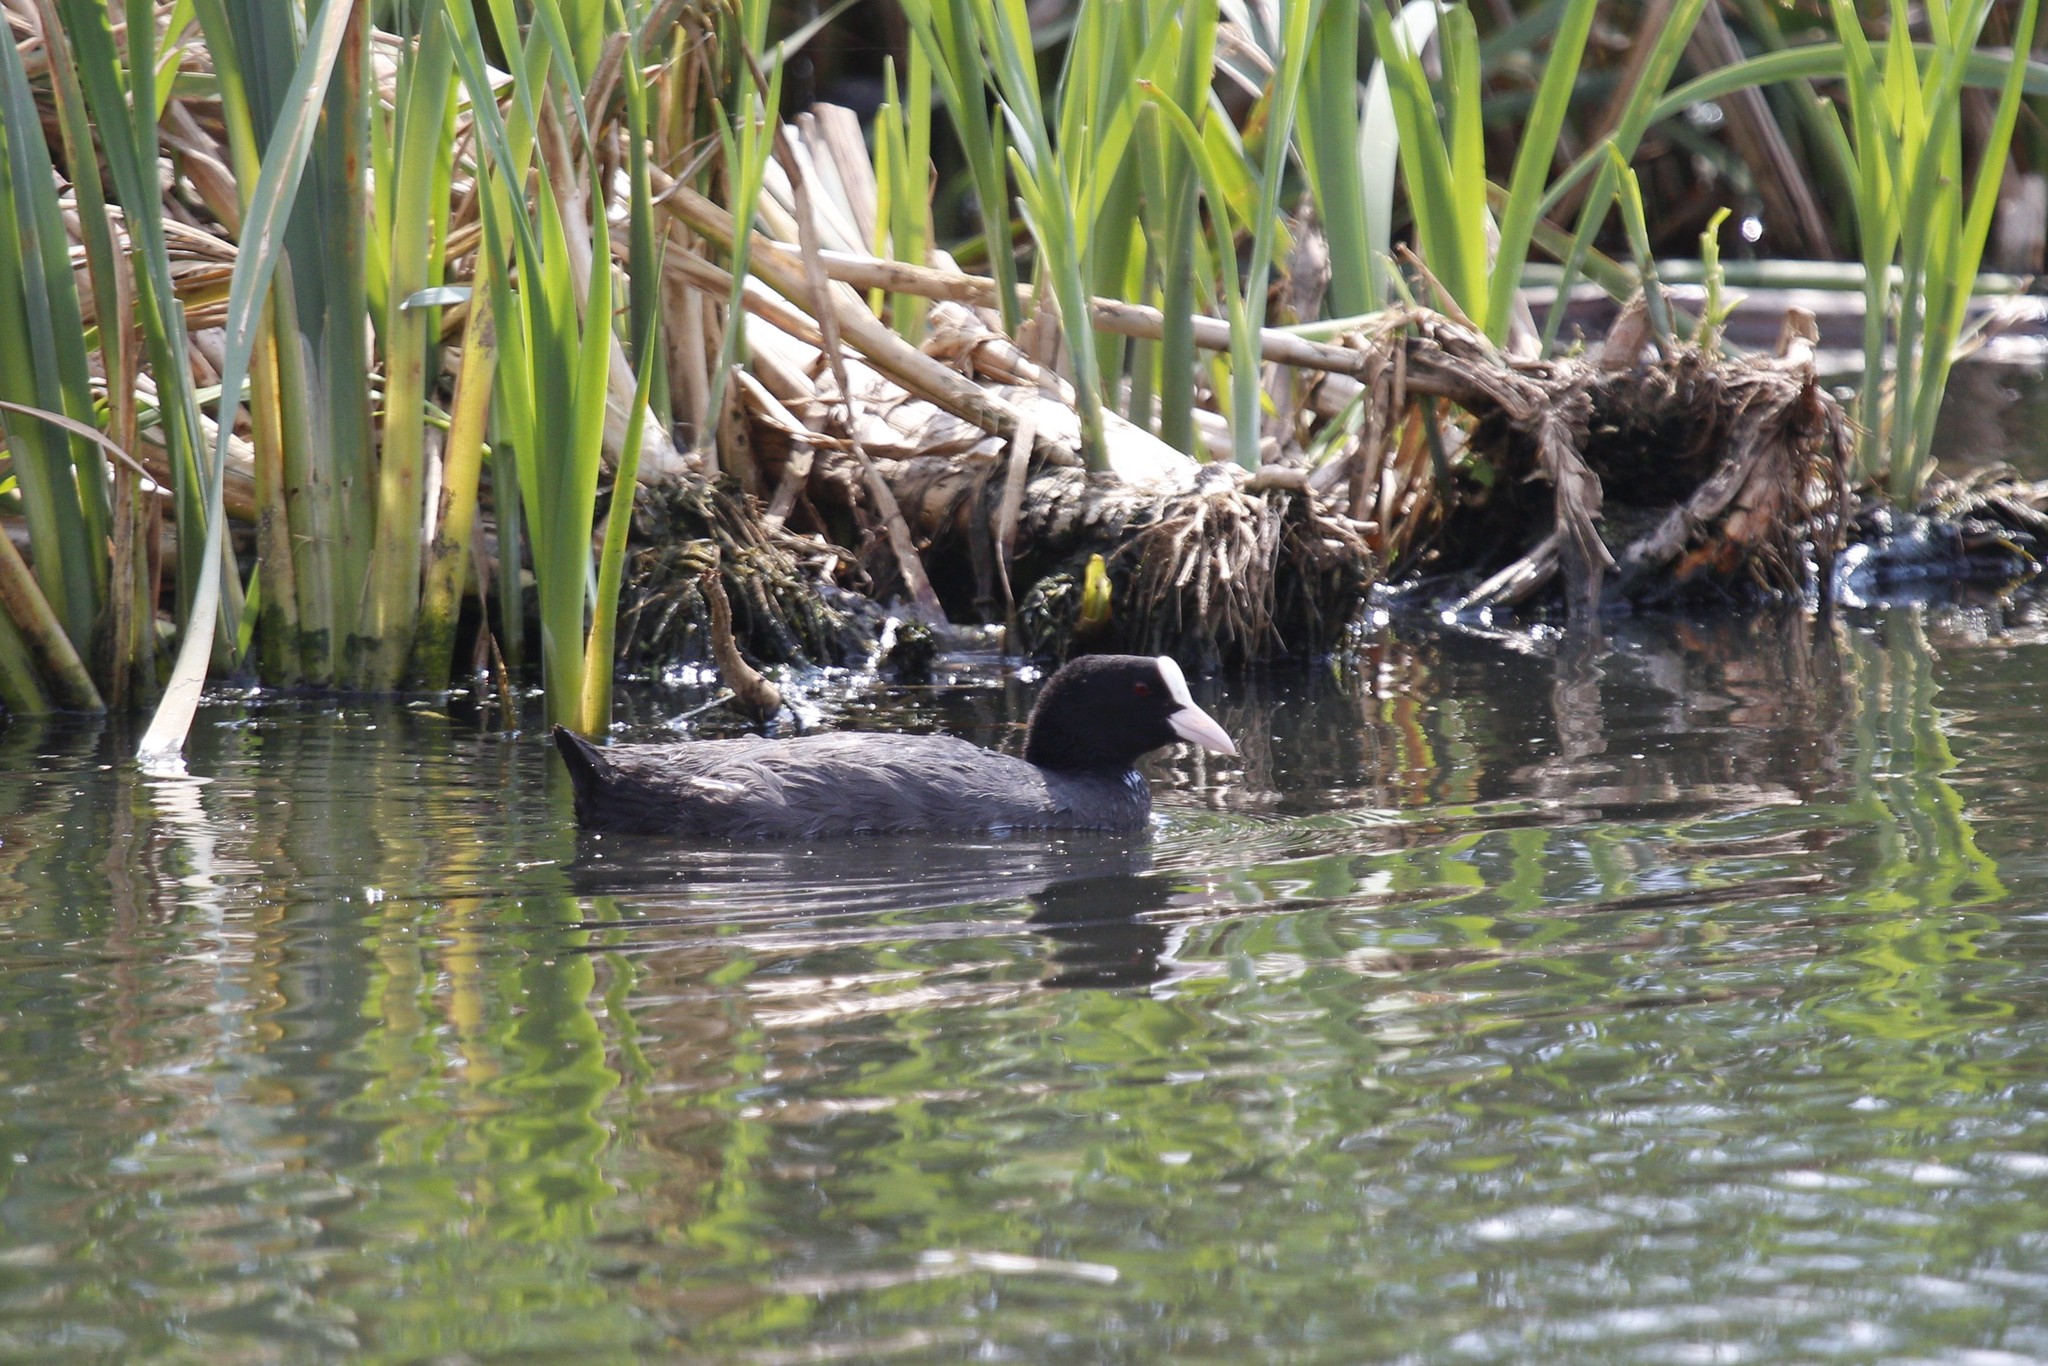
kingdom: Animalia
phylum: Chordata
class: Aves
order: Gruiformes
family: Rallidae
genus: Fulica
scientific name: Fulica atra
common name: Eurasian coot
